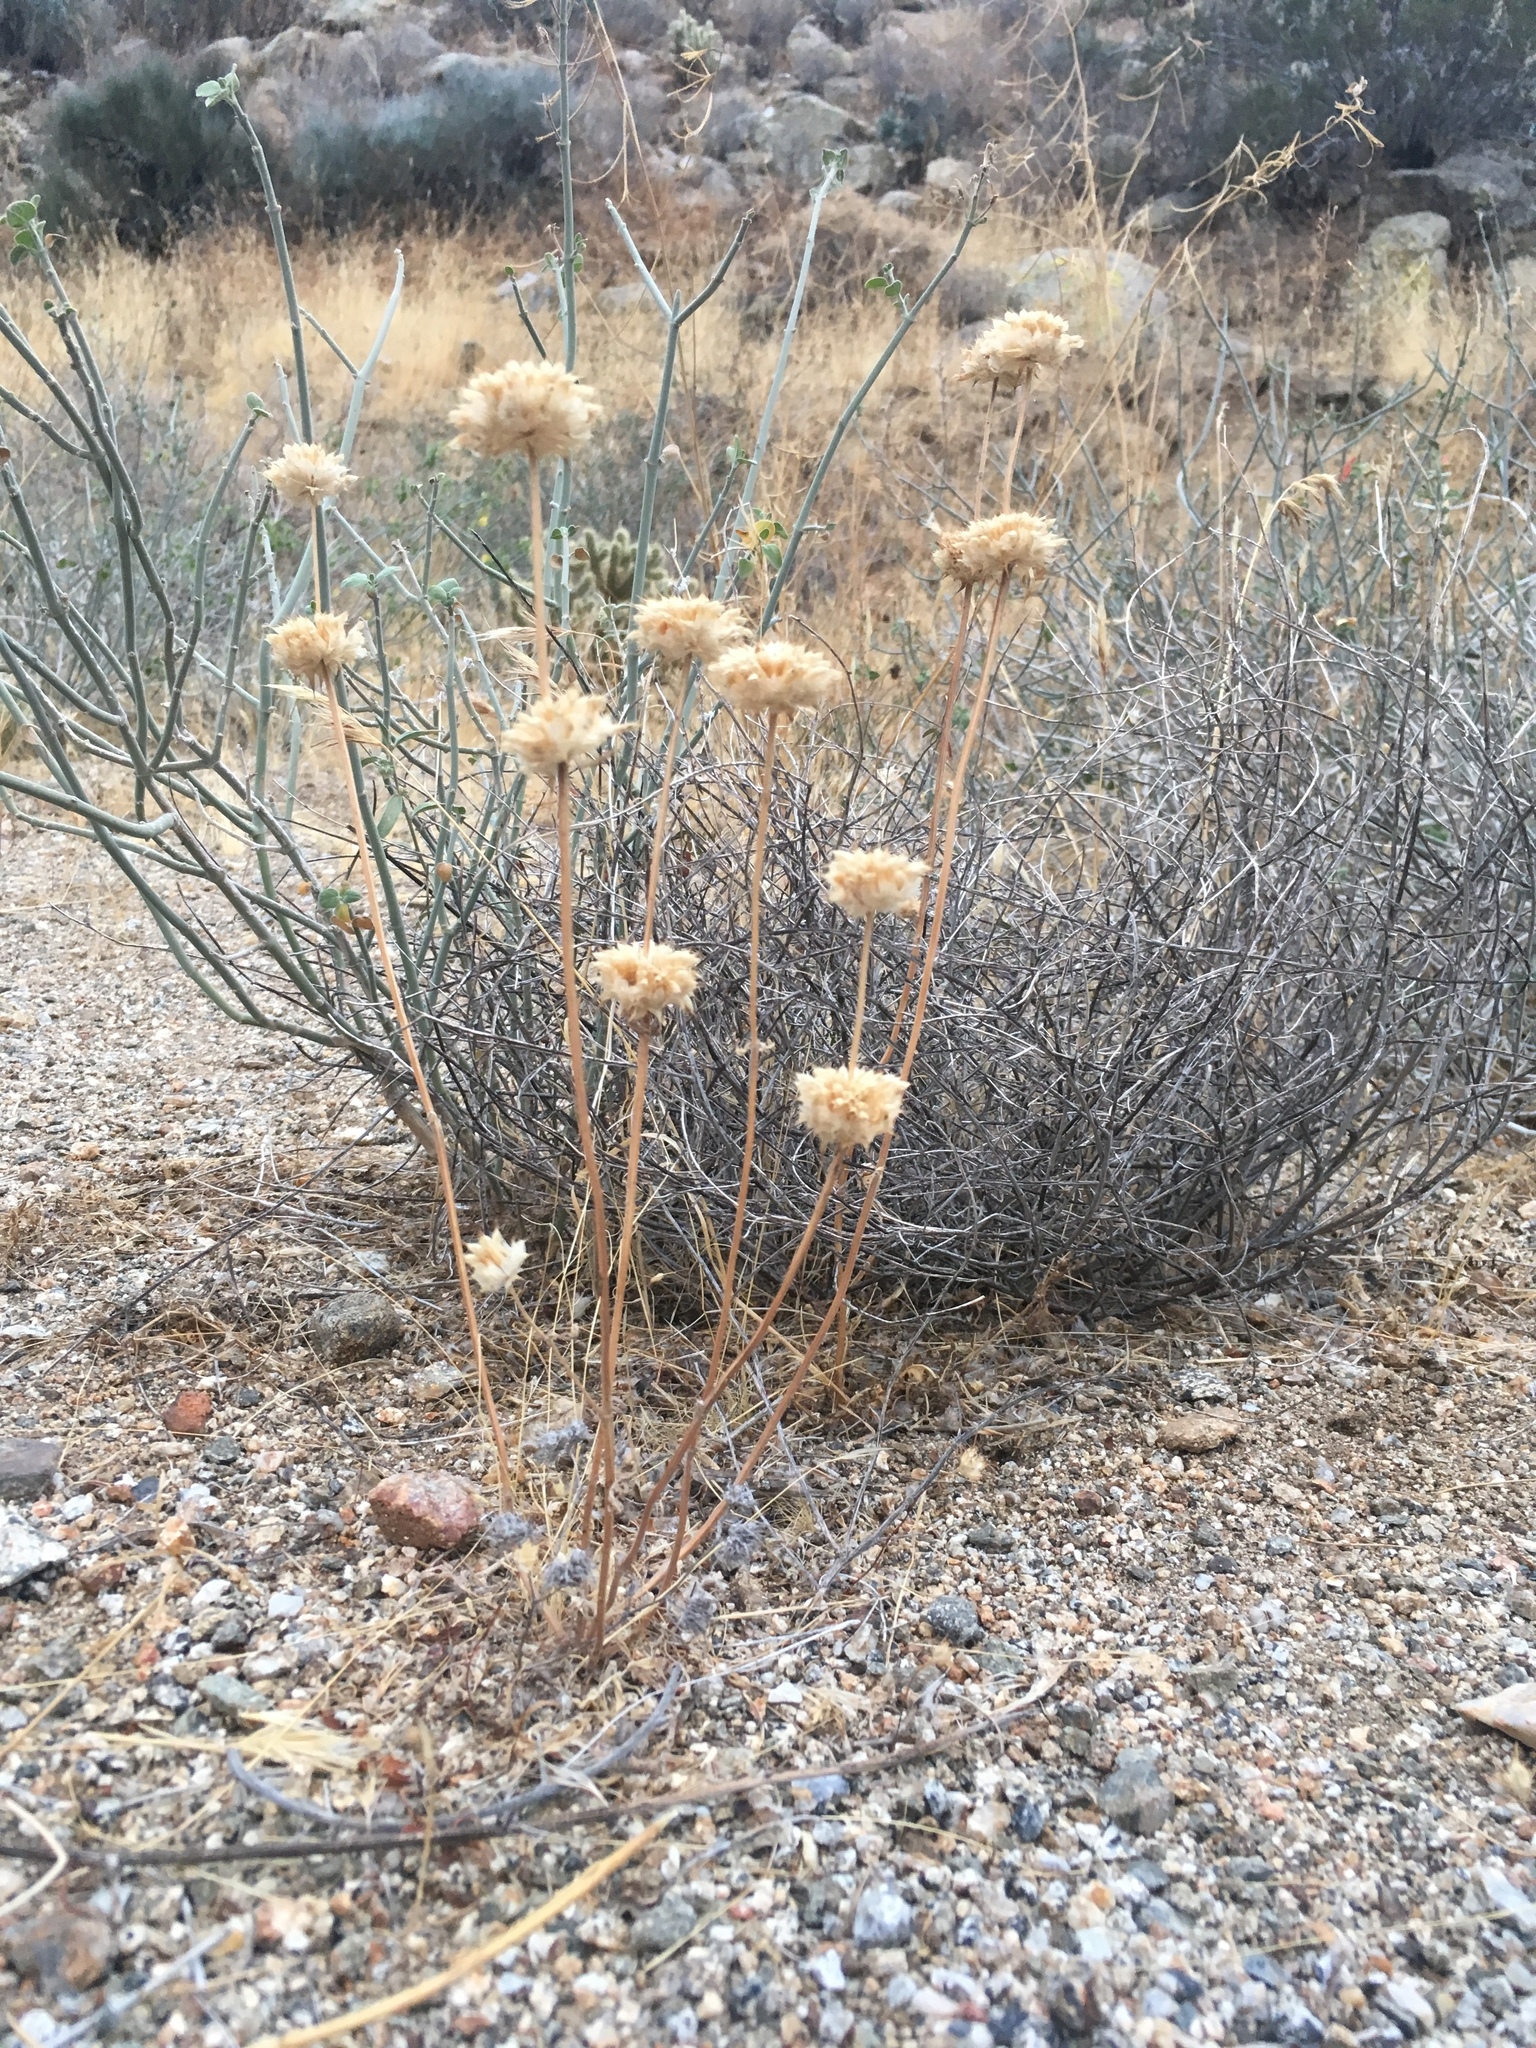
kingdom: Plantae
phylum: Tracheophyta
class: Magnoliopsida
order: Lamiales
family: Lamiaceae
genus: Salvia
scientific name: Salvia columbariae
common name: Chia
